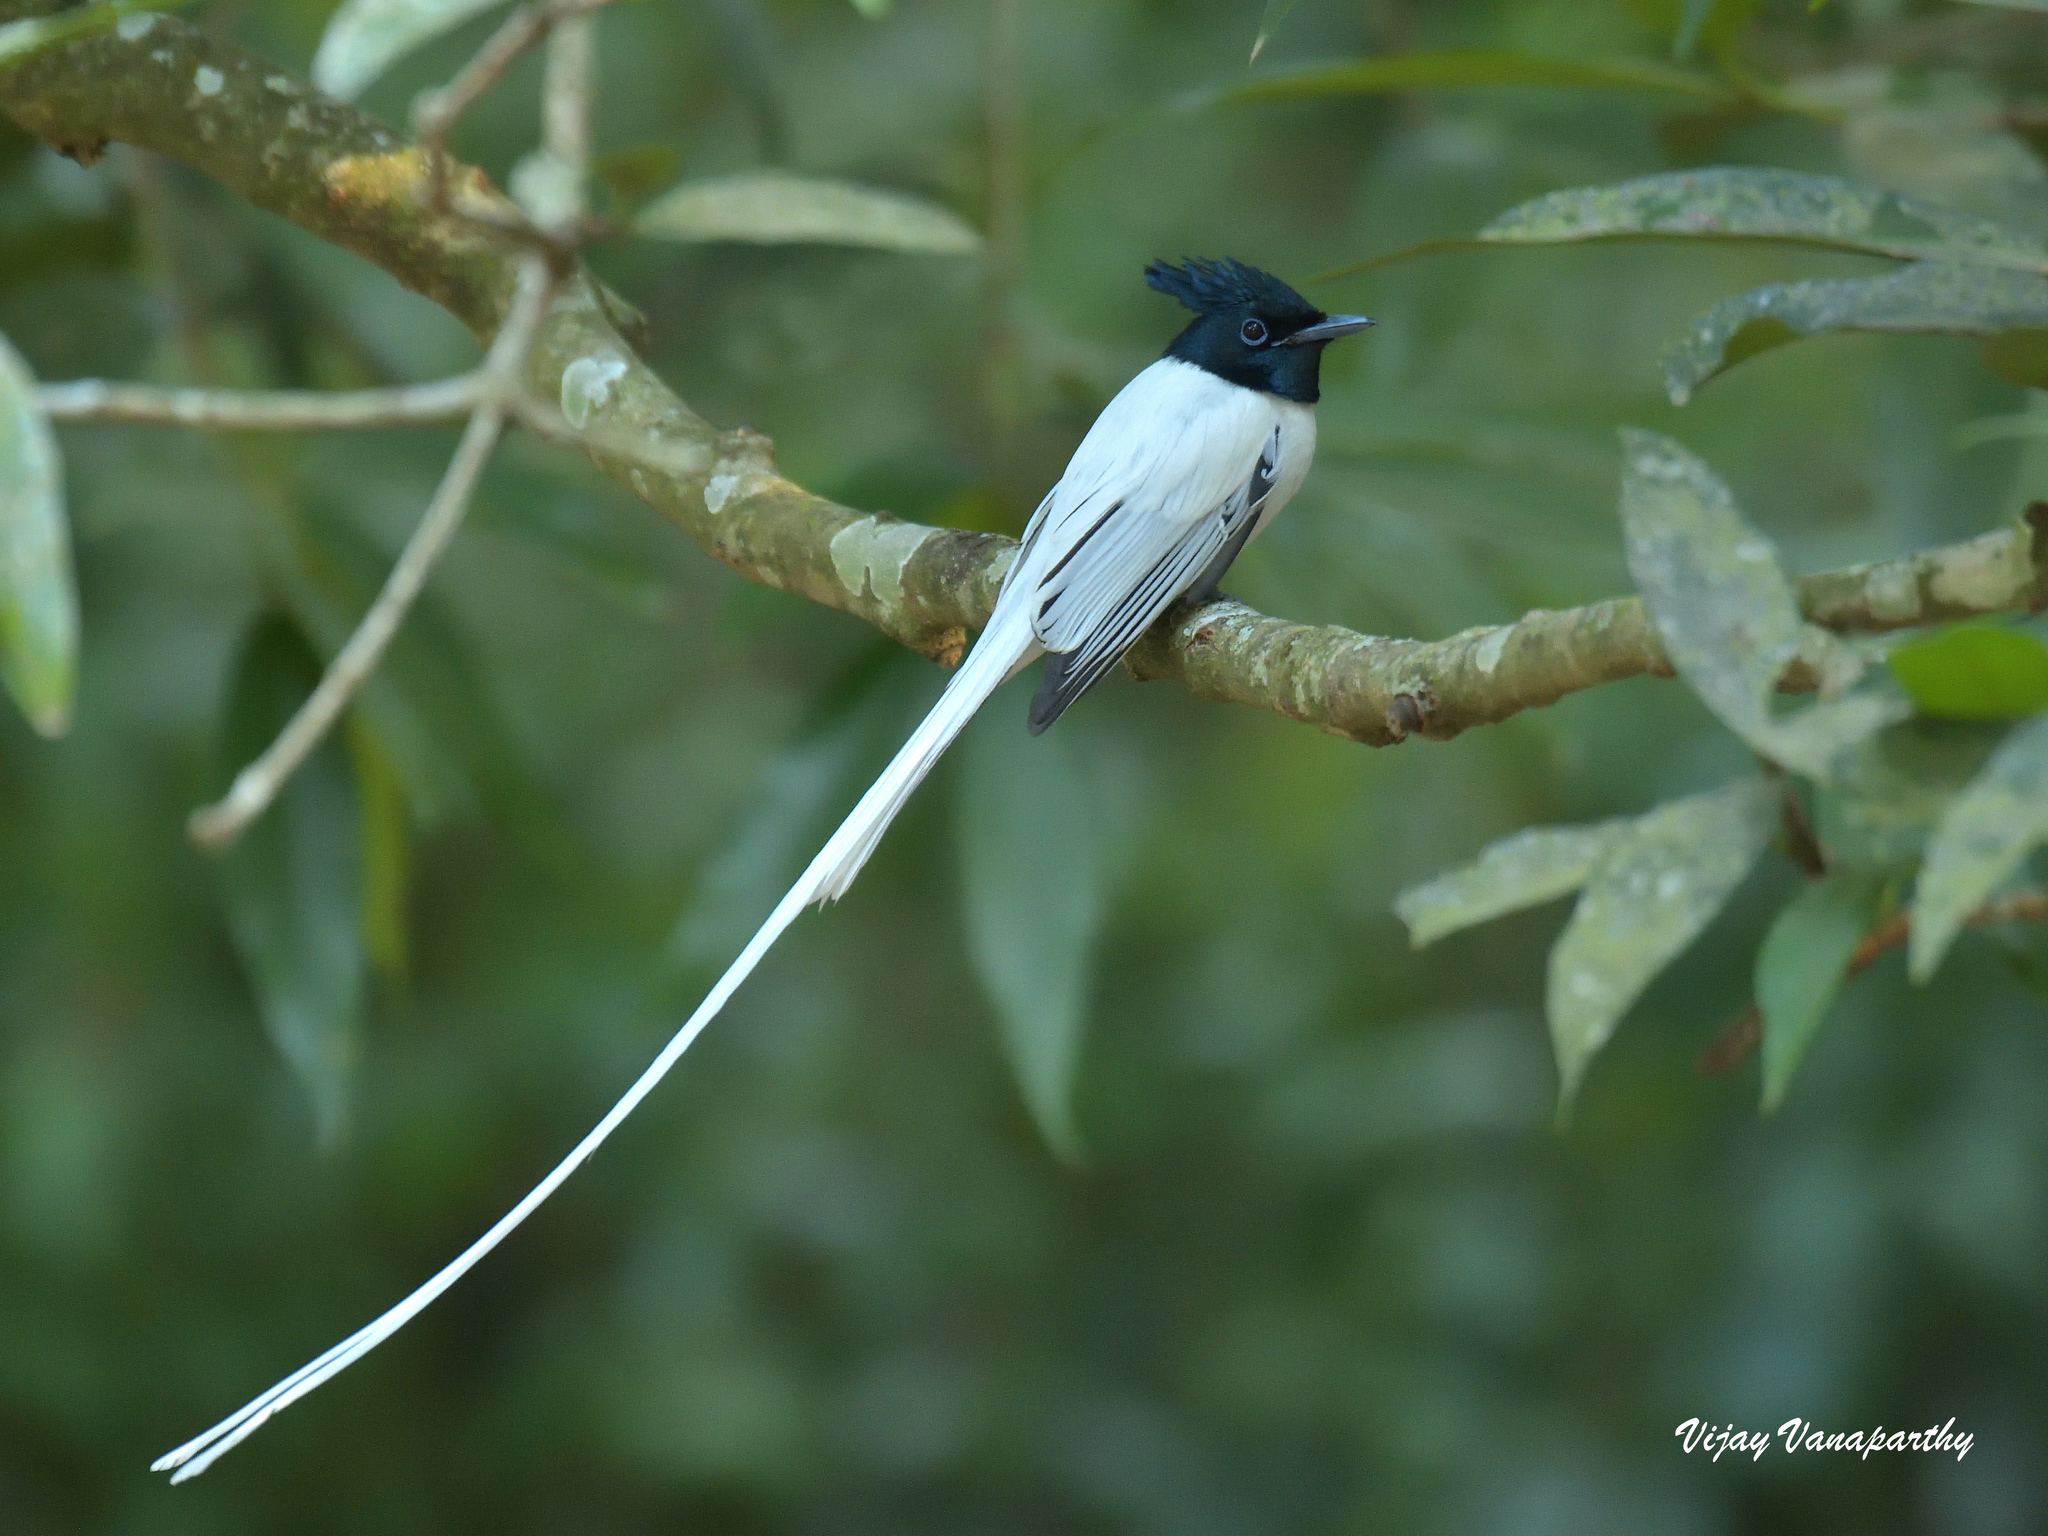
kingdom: Animalia
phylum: Chordata
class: Aves
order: Passeriformes
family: Monarchidae
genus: Terpsiphone
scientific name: Terpsiphone paradisi
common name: Indian paradise flycatcher
